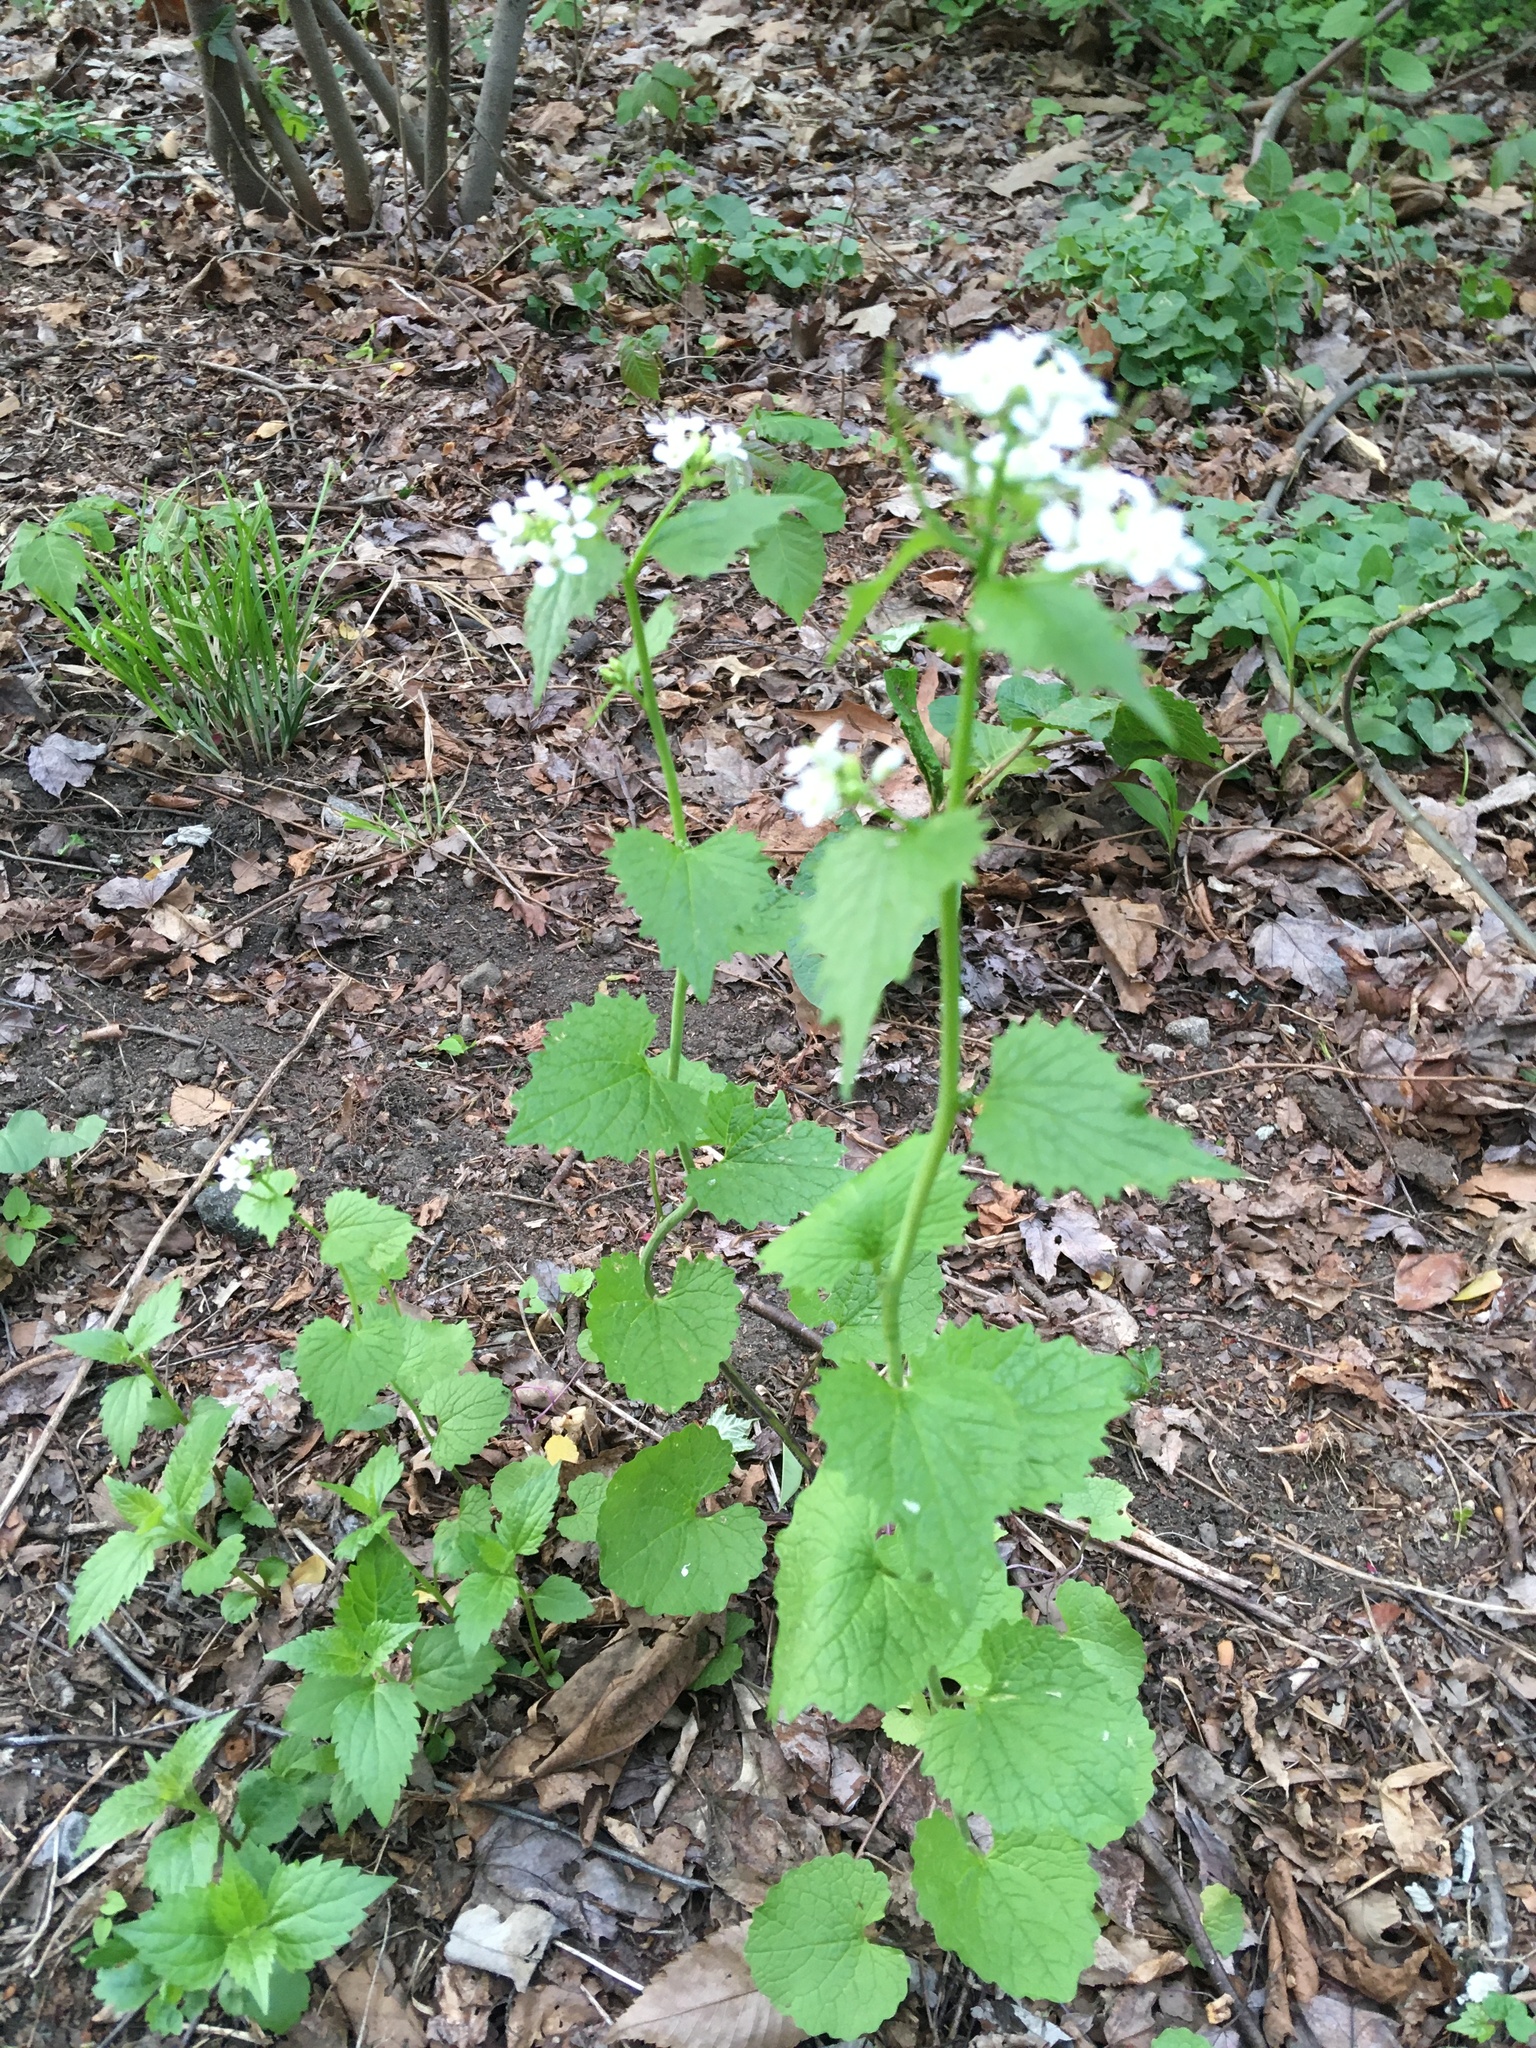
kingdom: Plantae
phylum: Tracheophyta
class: Magnoliopsida
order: Brassicales
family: Brassicaceae
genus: Alliaria
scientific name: Alliaria petiolata
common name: Garlic mustard
